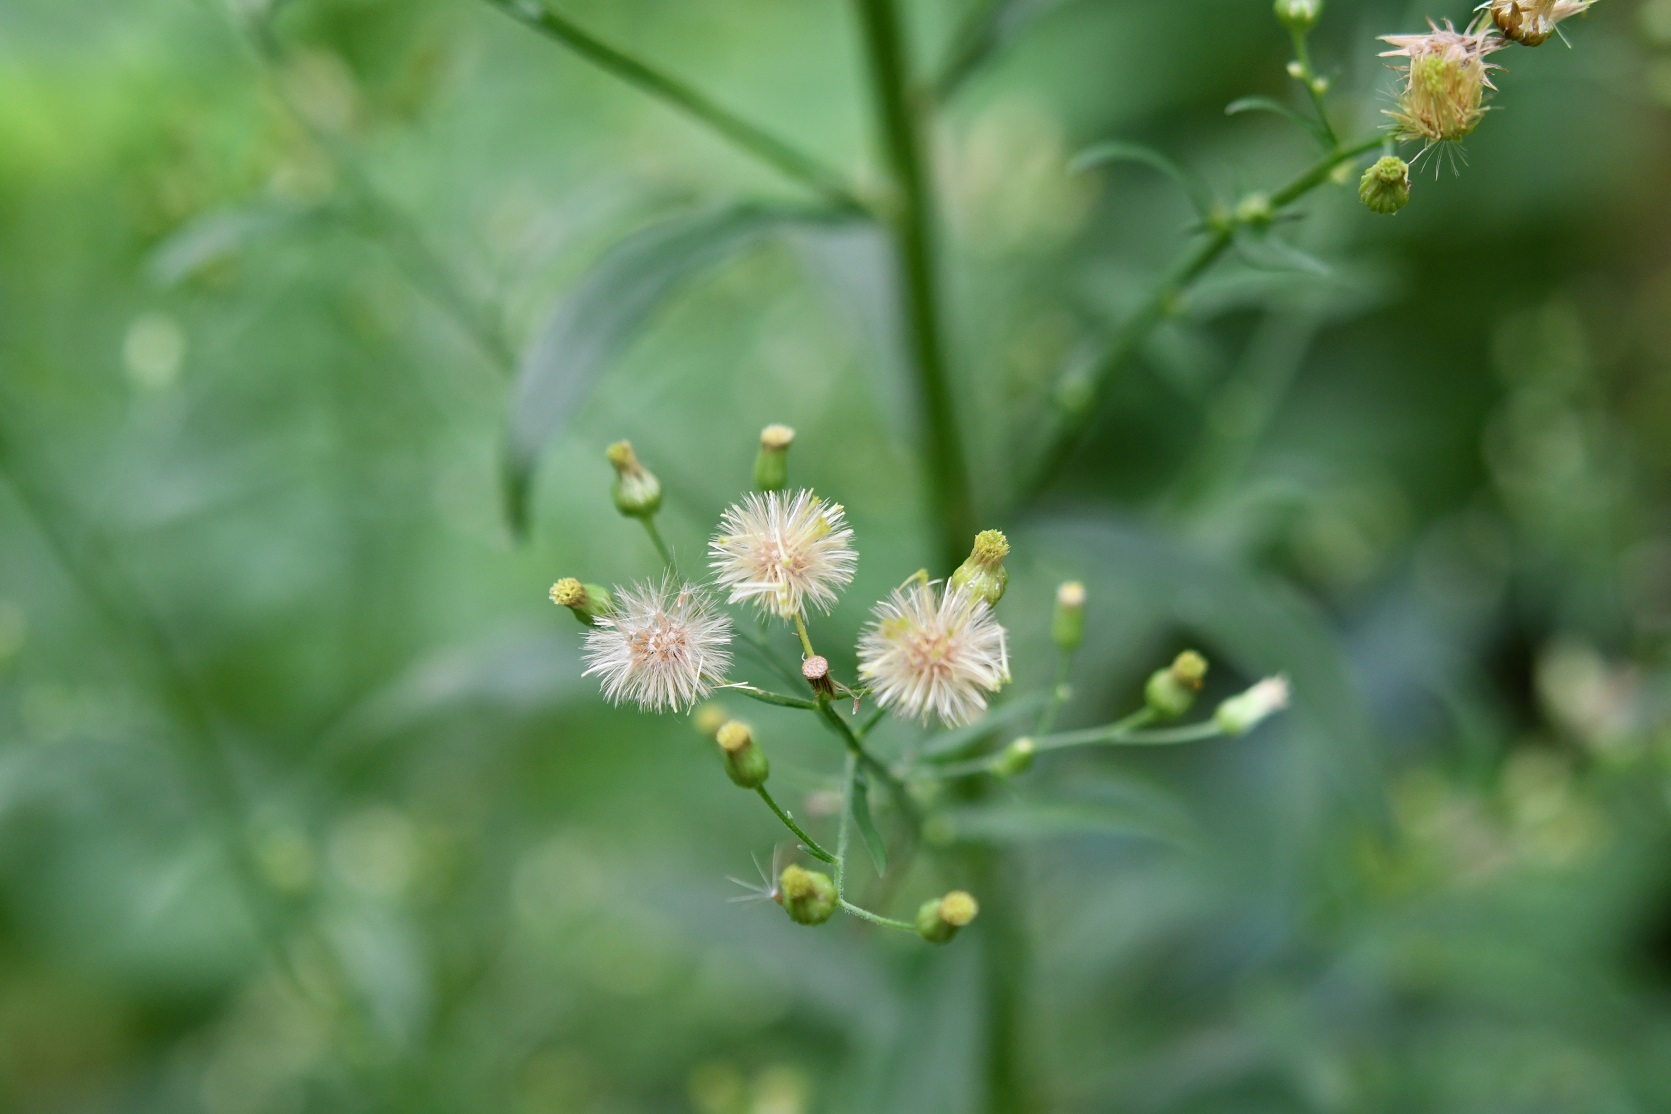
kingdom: Plantae
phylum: Tracheophyta
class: Magnoliopsida
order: Asterales
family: Asteraceae
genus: Erigeron
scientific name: Erigeron canadensis
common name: Canadian fleabane
